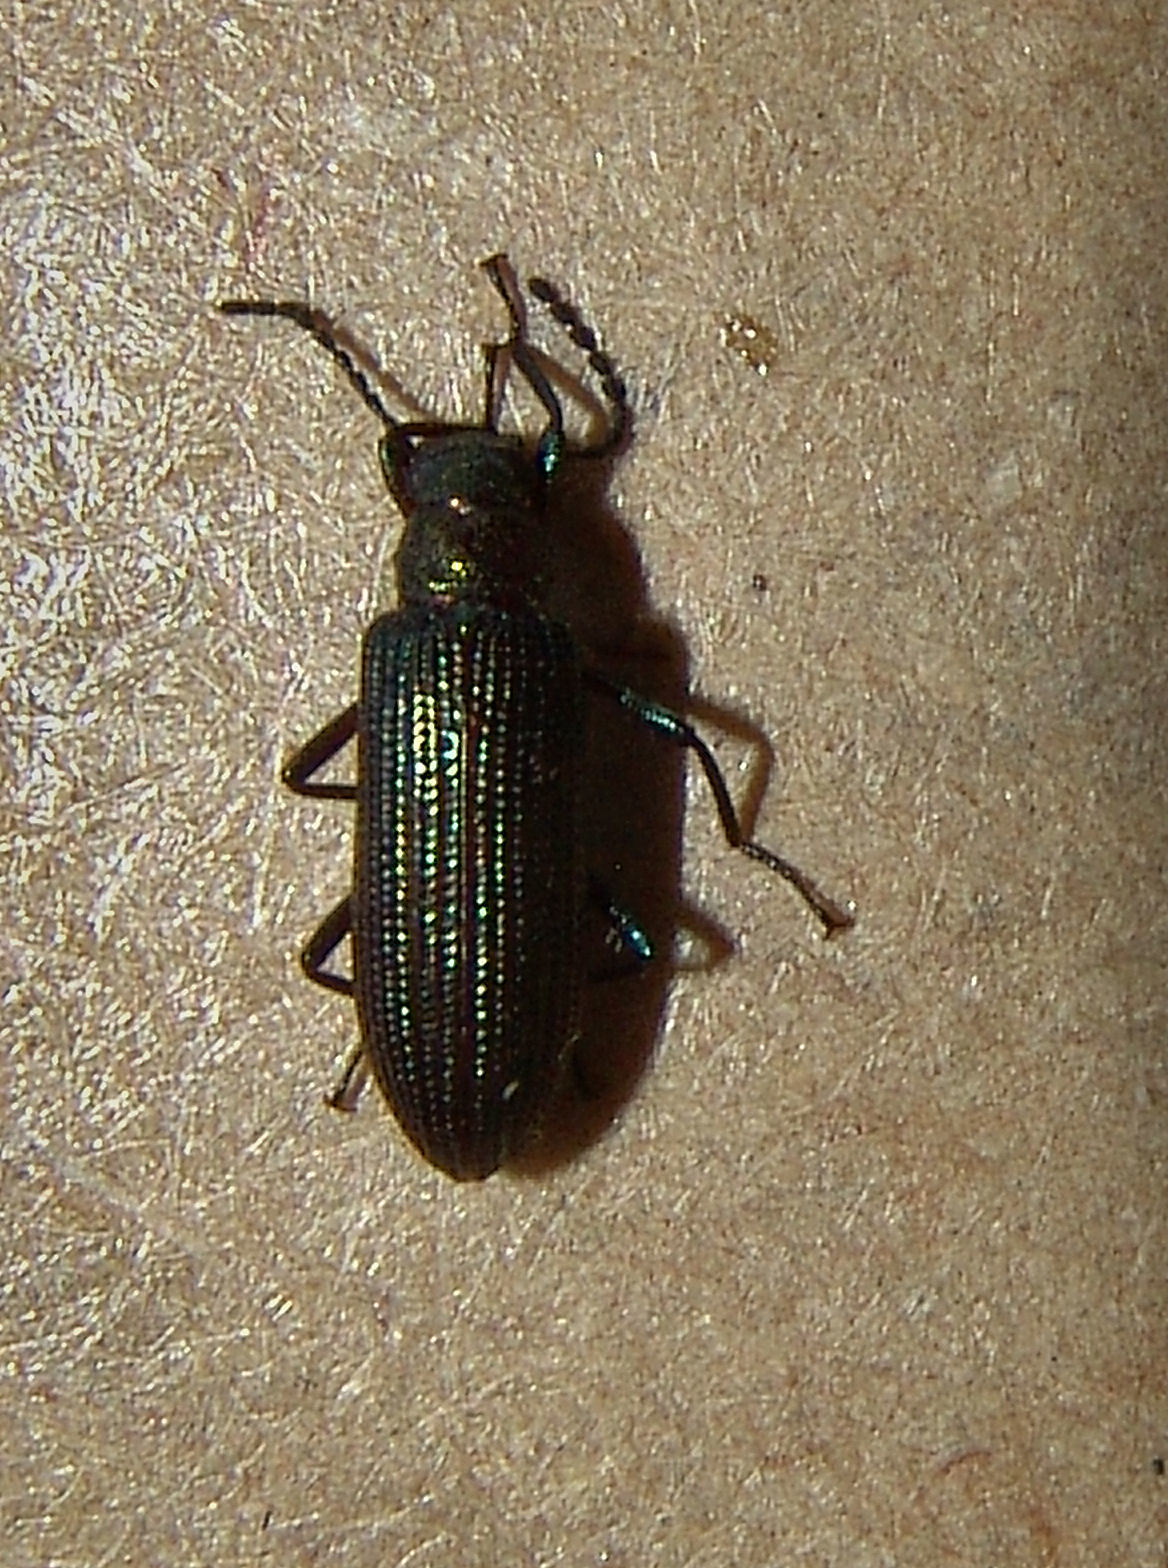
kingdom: Animalia
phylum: Arthropoda
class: Insecta
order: Coleoptera
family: Tenebrionidae
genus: Strongylium
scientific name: Strongylium
